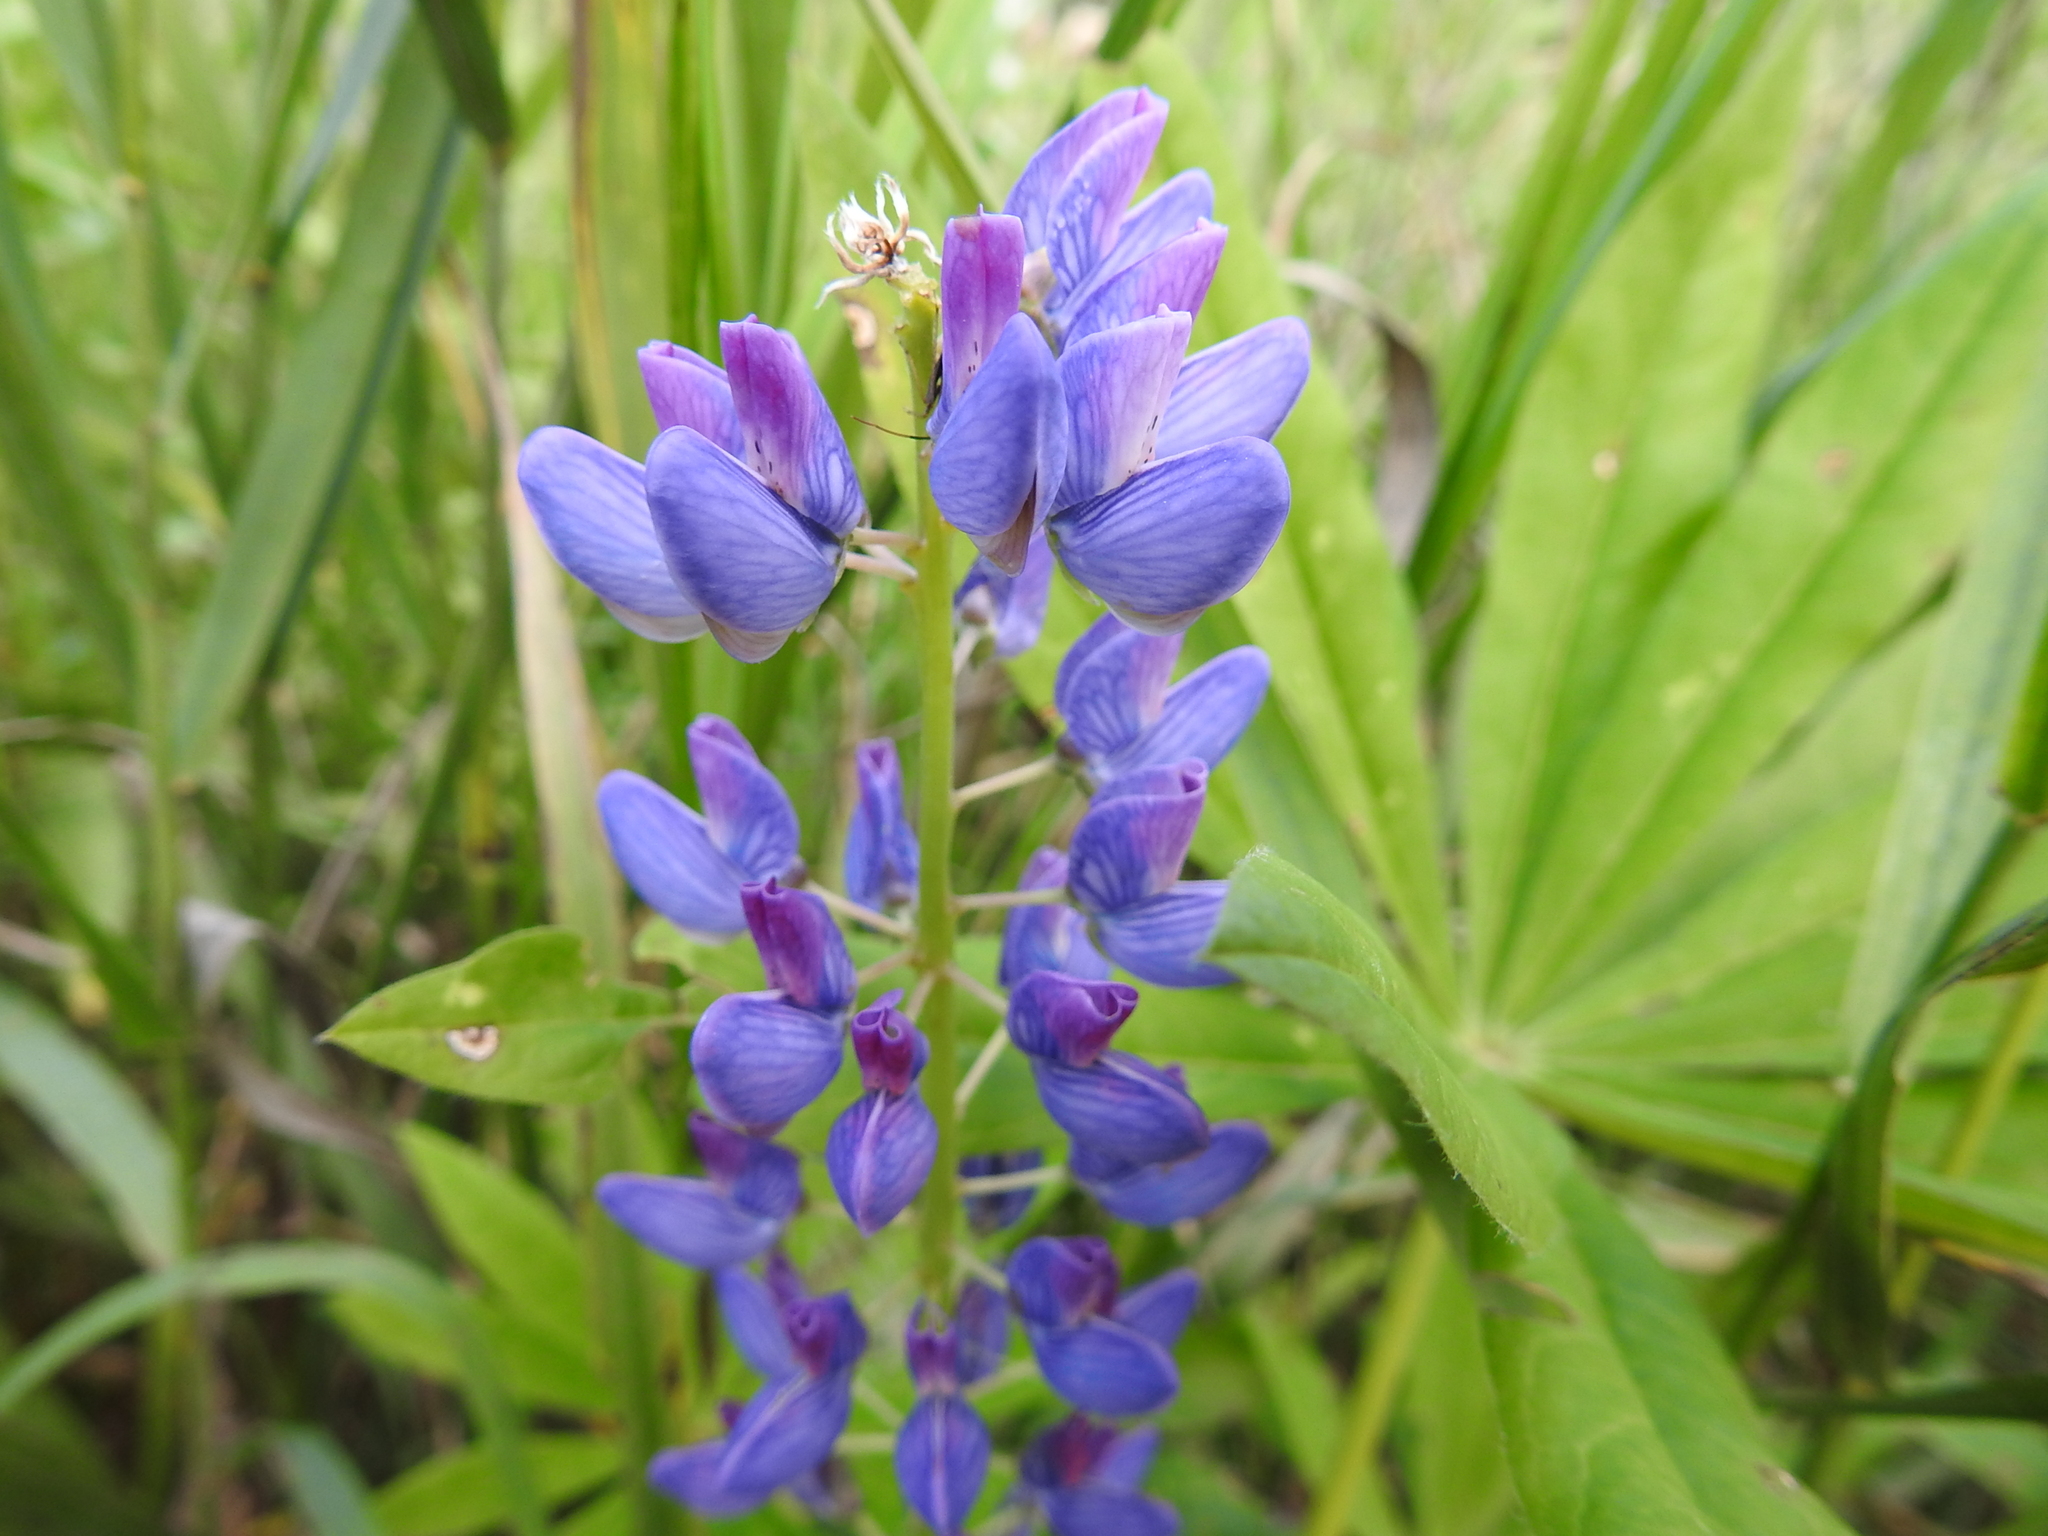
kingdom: Plantae
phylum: Tracheophyta
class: Magnoliopsida
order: Fabales
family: Fabaceae
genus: Lupinus
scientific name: Lupinus polyphyllus
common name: Garden lupin
